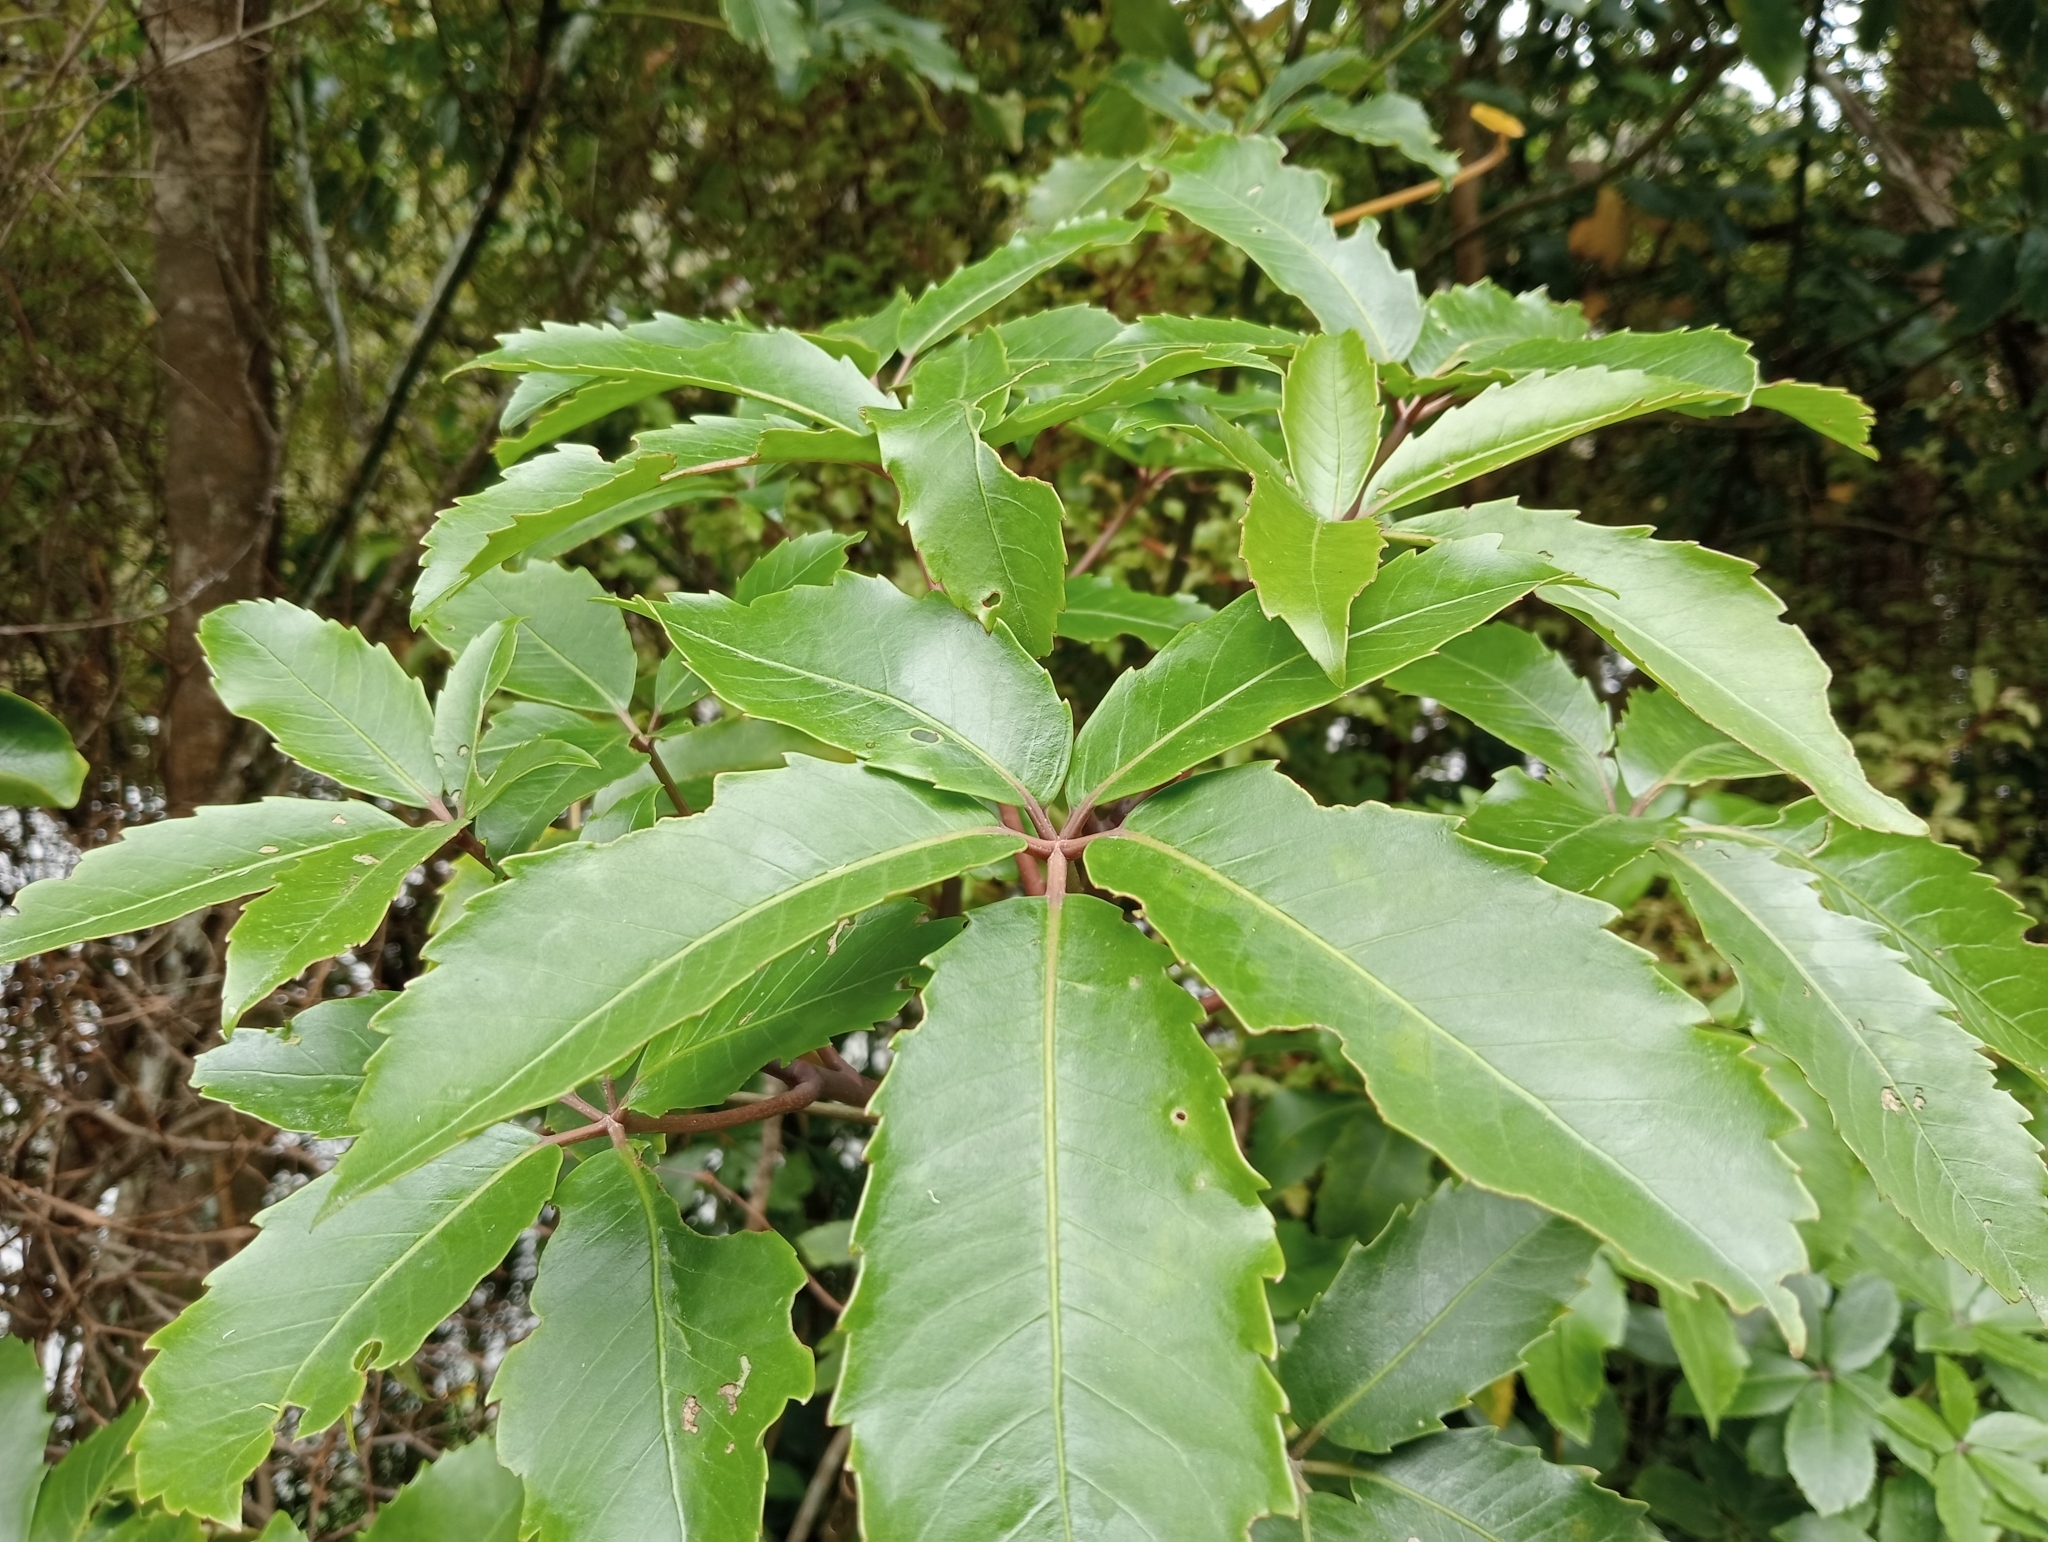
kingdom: Plantae
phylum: Tracheophyta
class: Magnoliopsida
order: Apiales
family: Araliaceae
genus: Neopanax
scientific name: Neopanax arboreus
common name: Five-fingers
